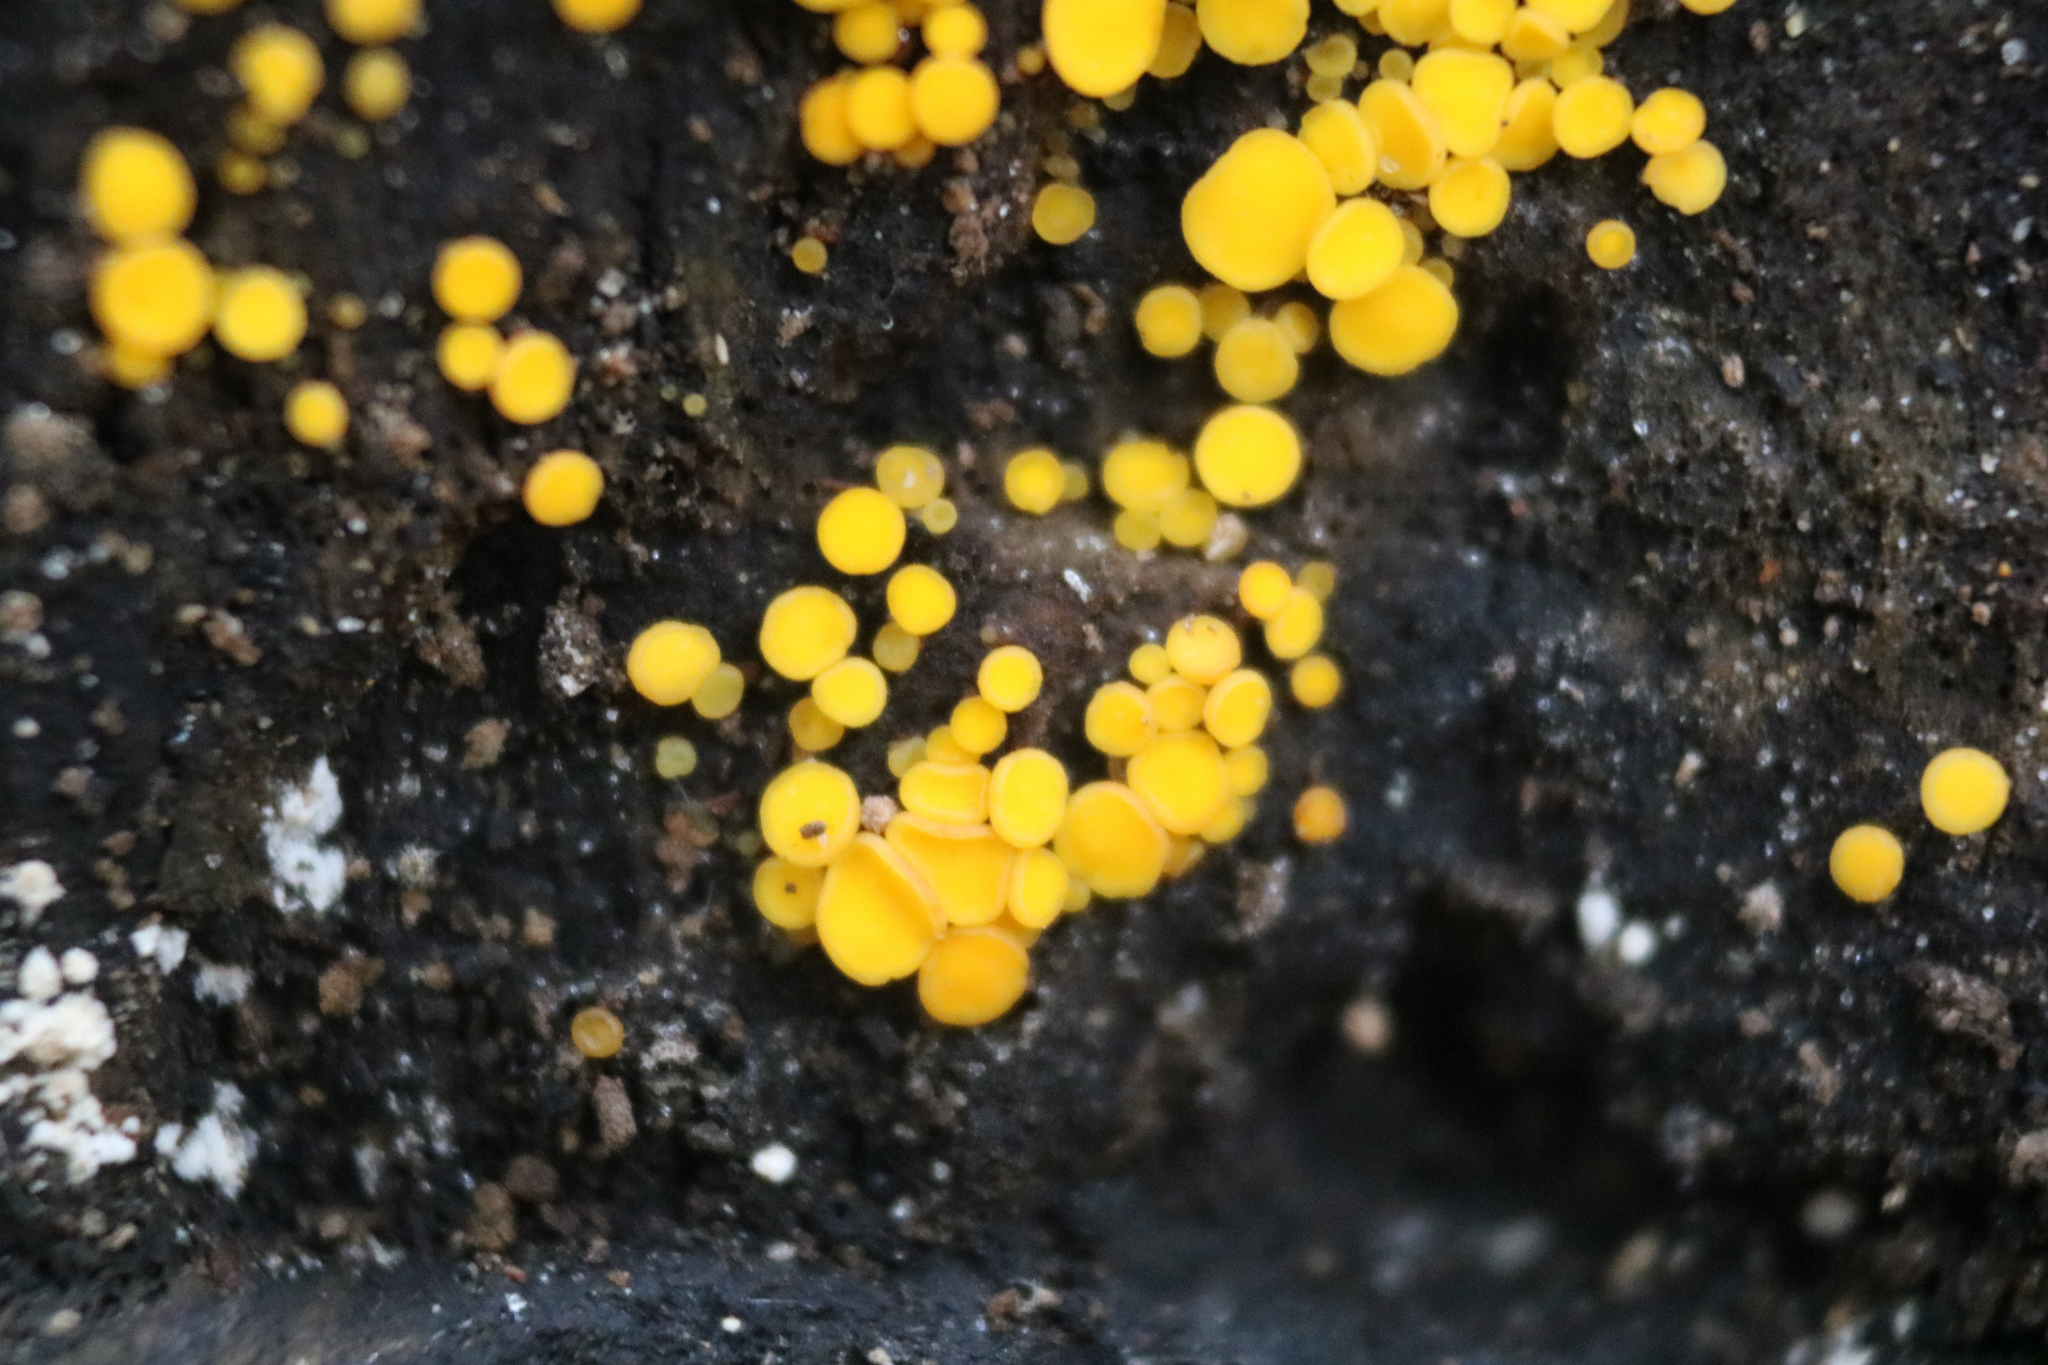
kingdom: Fungi
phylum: Ascomycota
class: Leotiomycetes
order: Helotiales
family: Pezizellaceae
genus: Calycina
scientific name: Calycina citrina
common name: Yellow fairy cups
